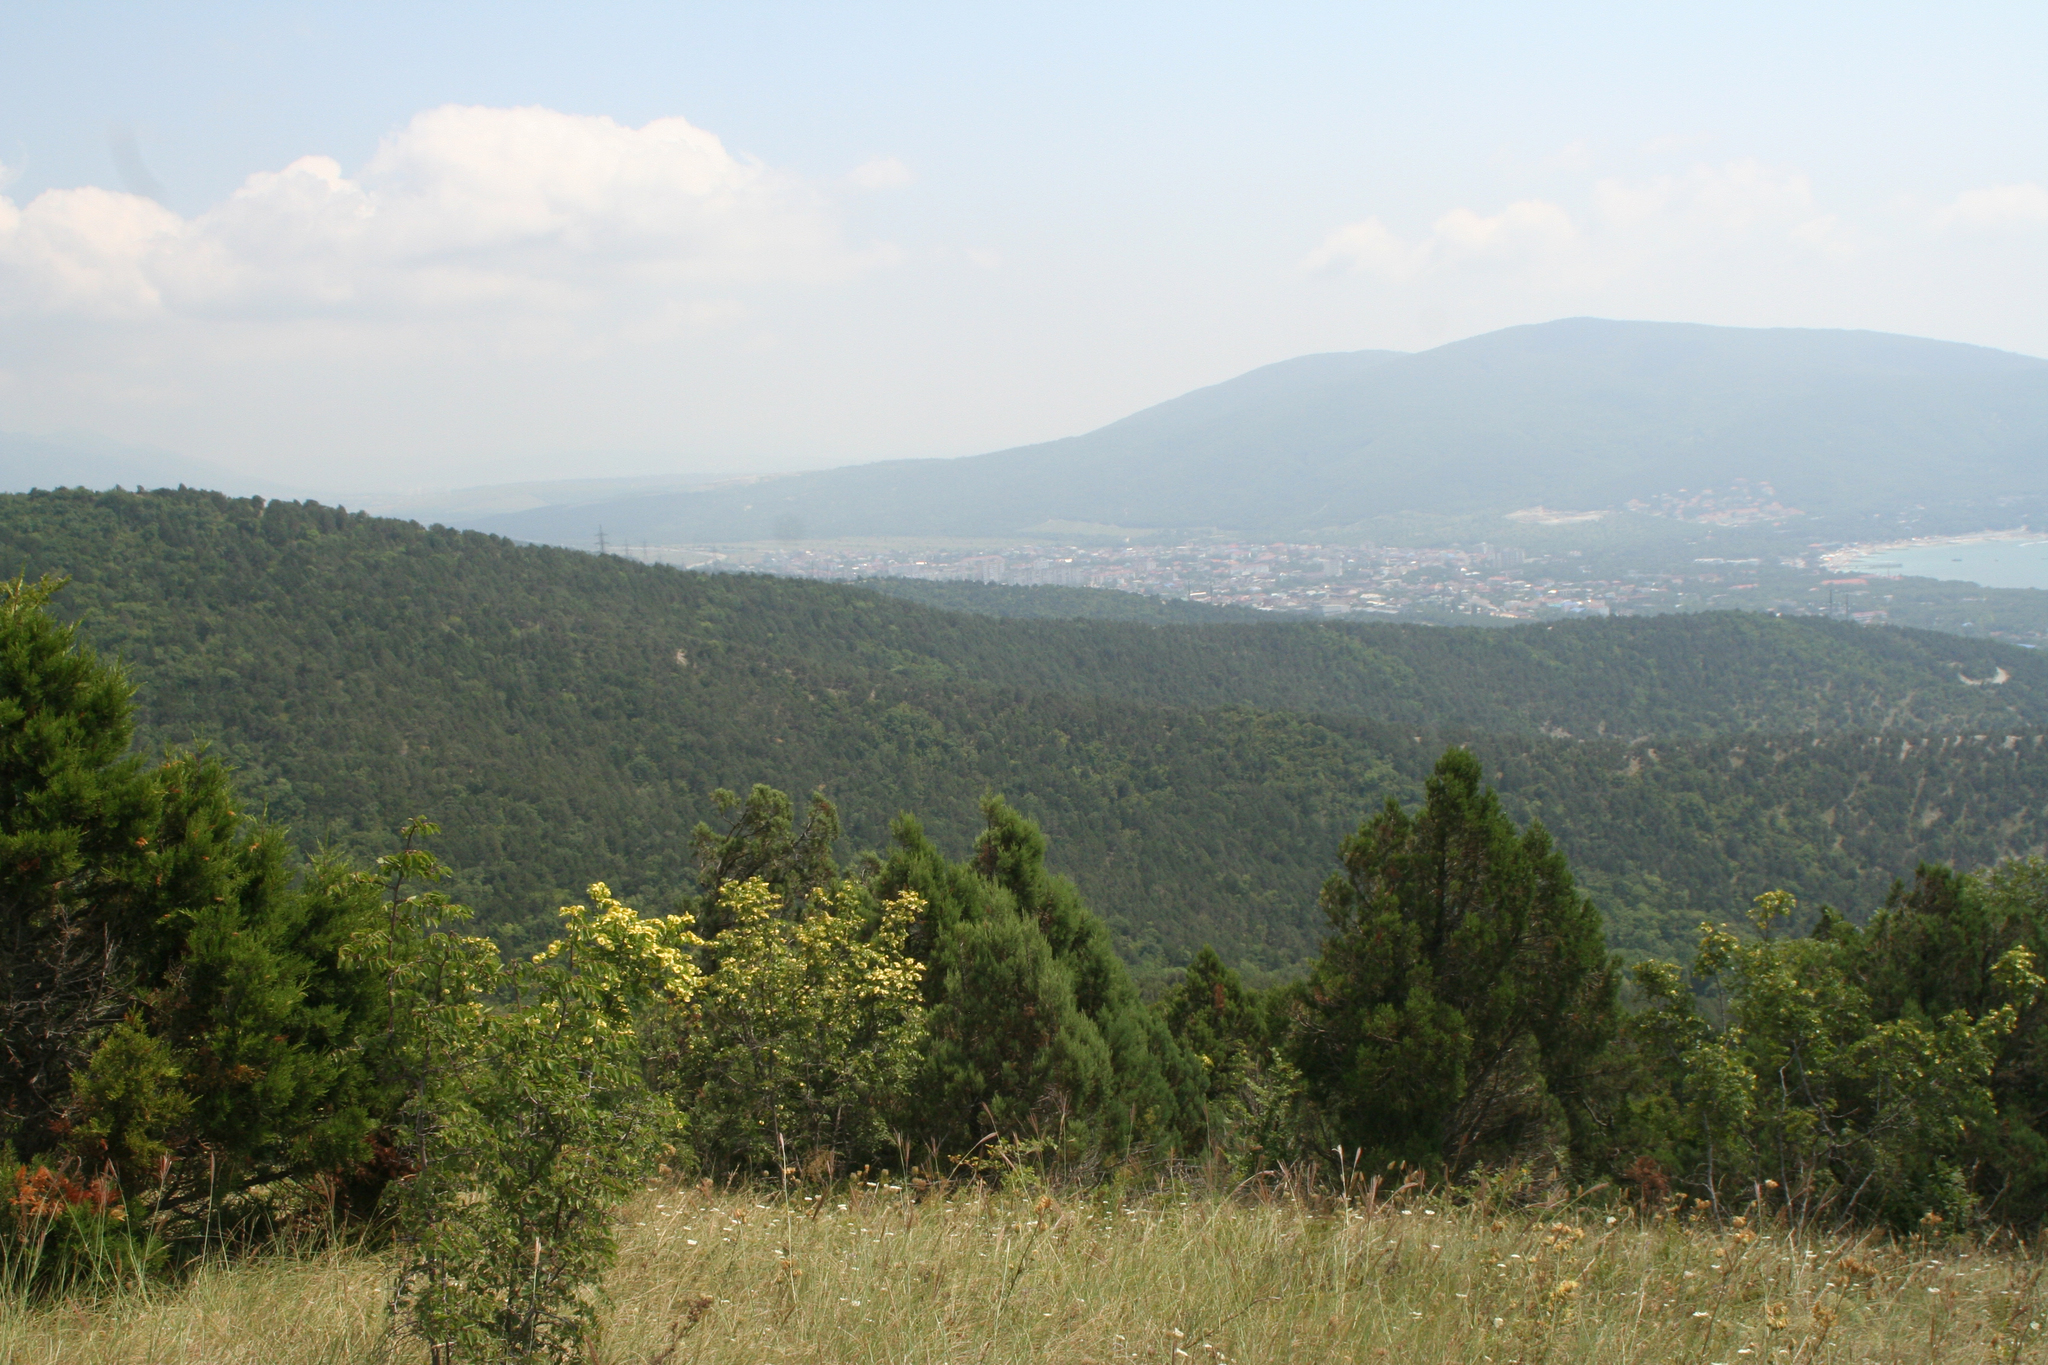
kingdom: Plantae
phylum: Tracheophyta
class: Magnoliopsida
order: Rosales
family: Rhamnaceae
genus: Paliurus
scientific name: Paliurus spina-christi
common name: Jeruselem thorn
